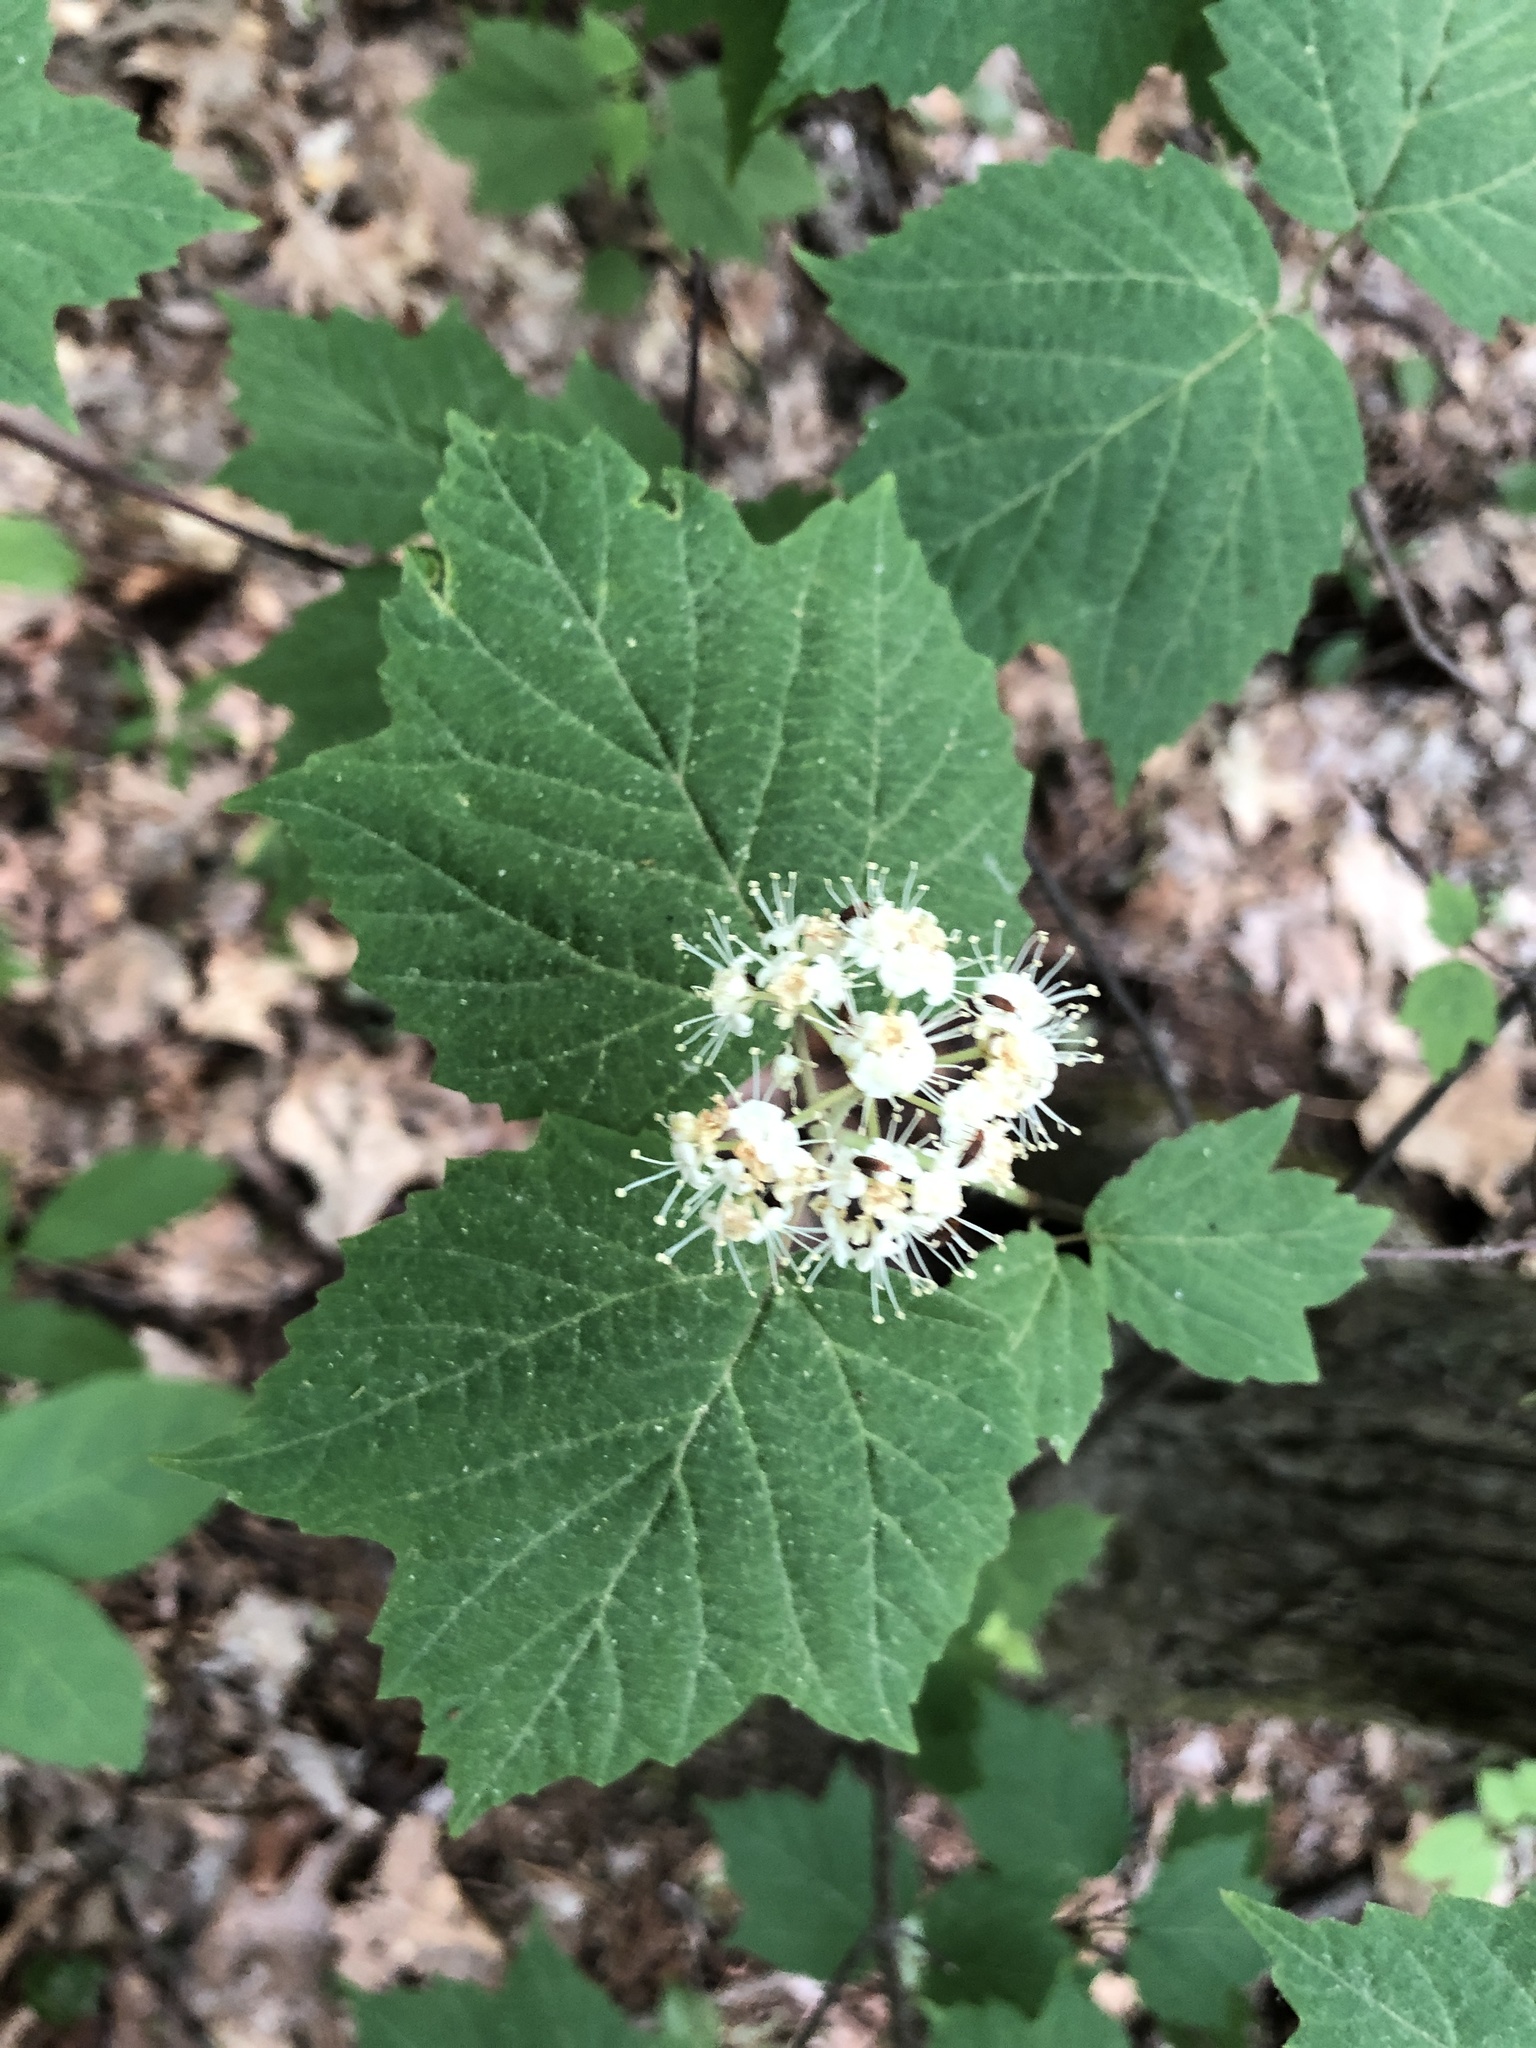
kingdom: Plantae
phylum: Tracheophyta
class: Magnoliopsida
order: Dipsacales
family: Viburnaceae
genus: Viburnum
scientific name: Viburnum acerifolium
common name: Dockmackie
